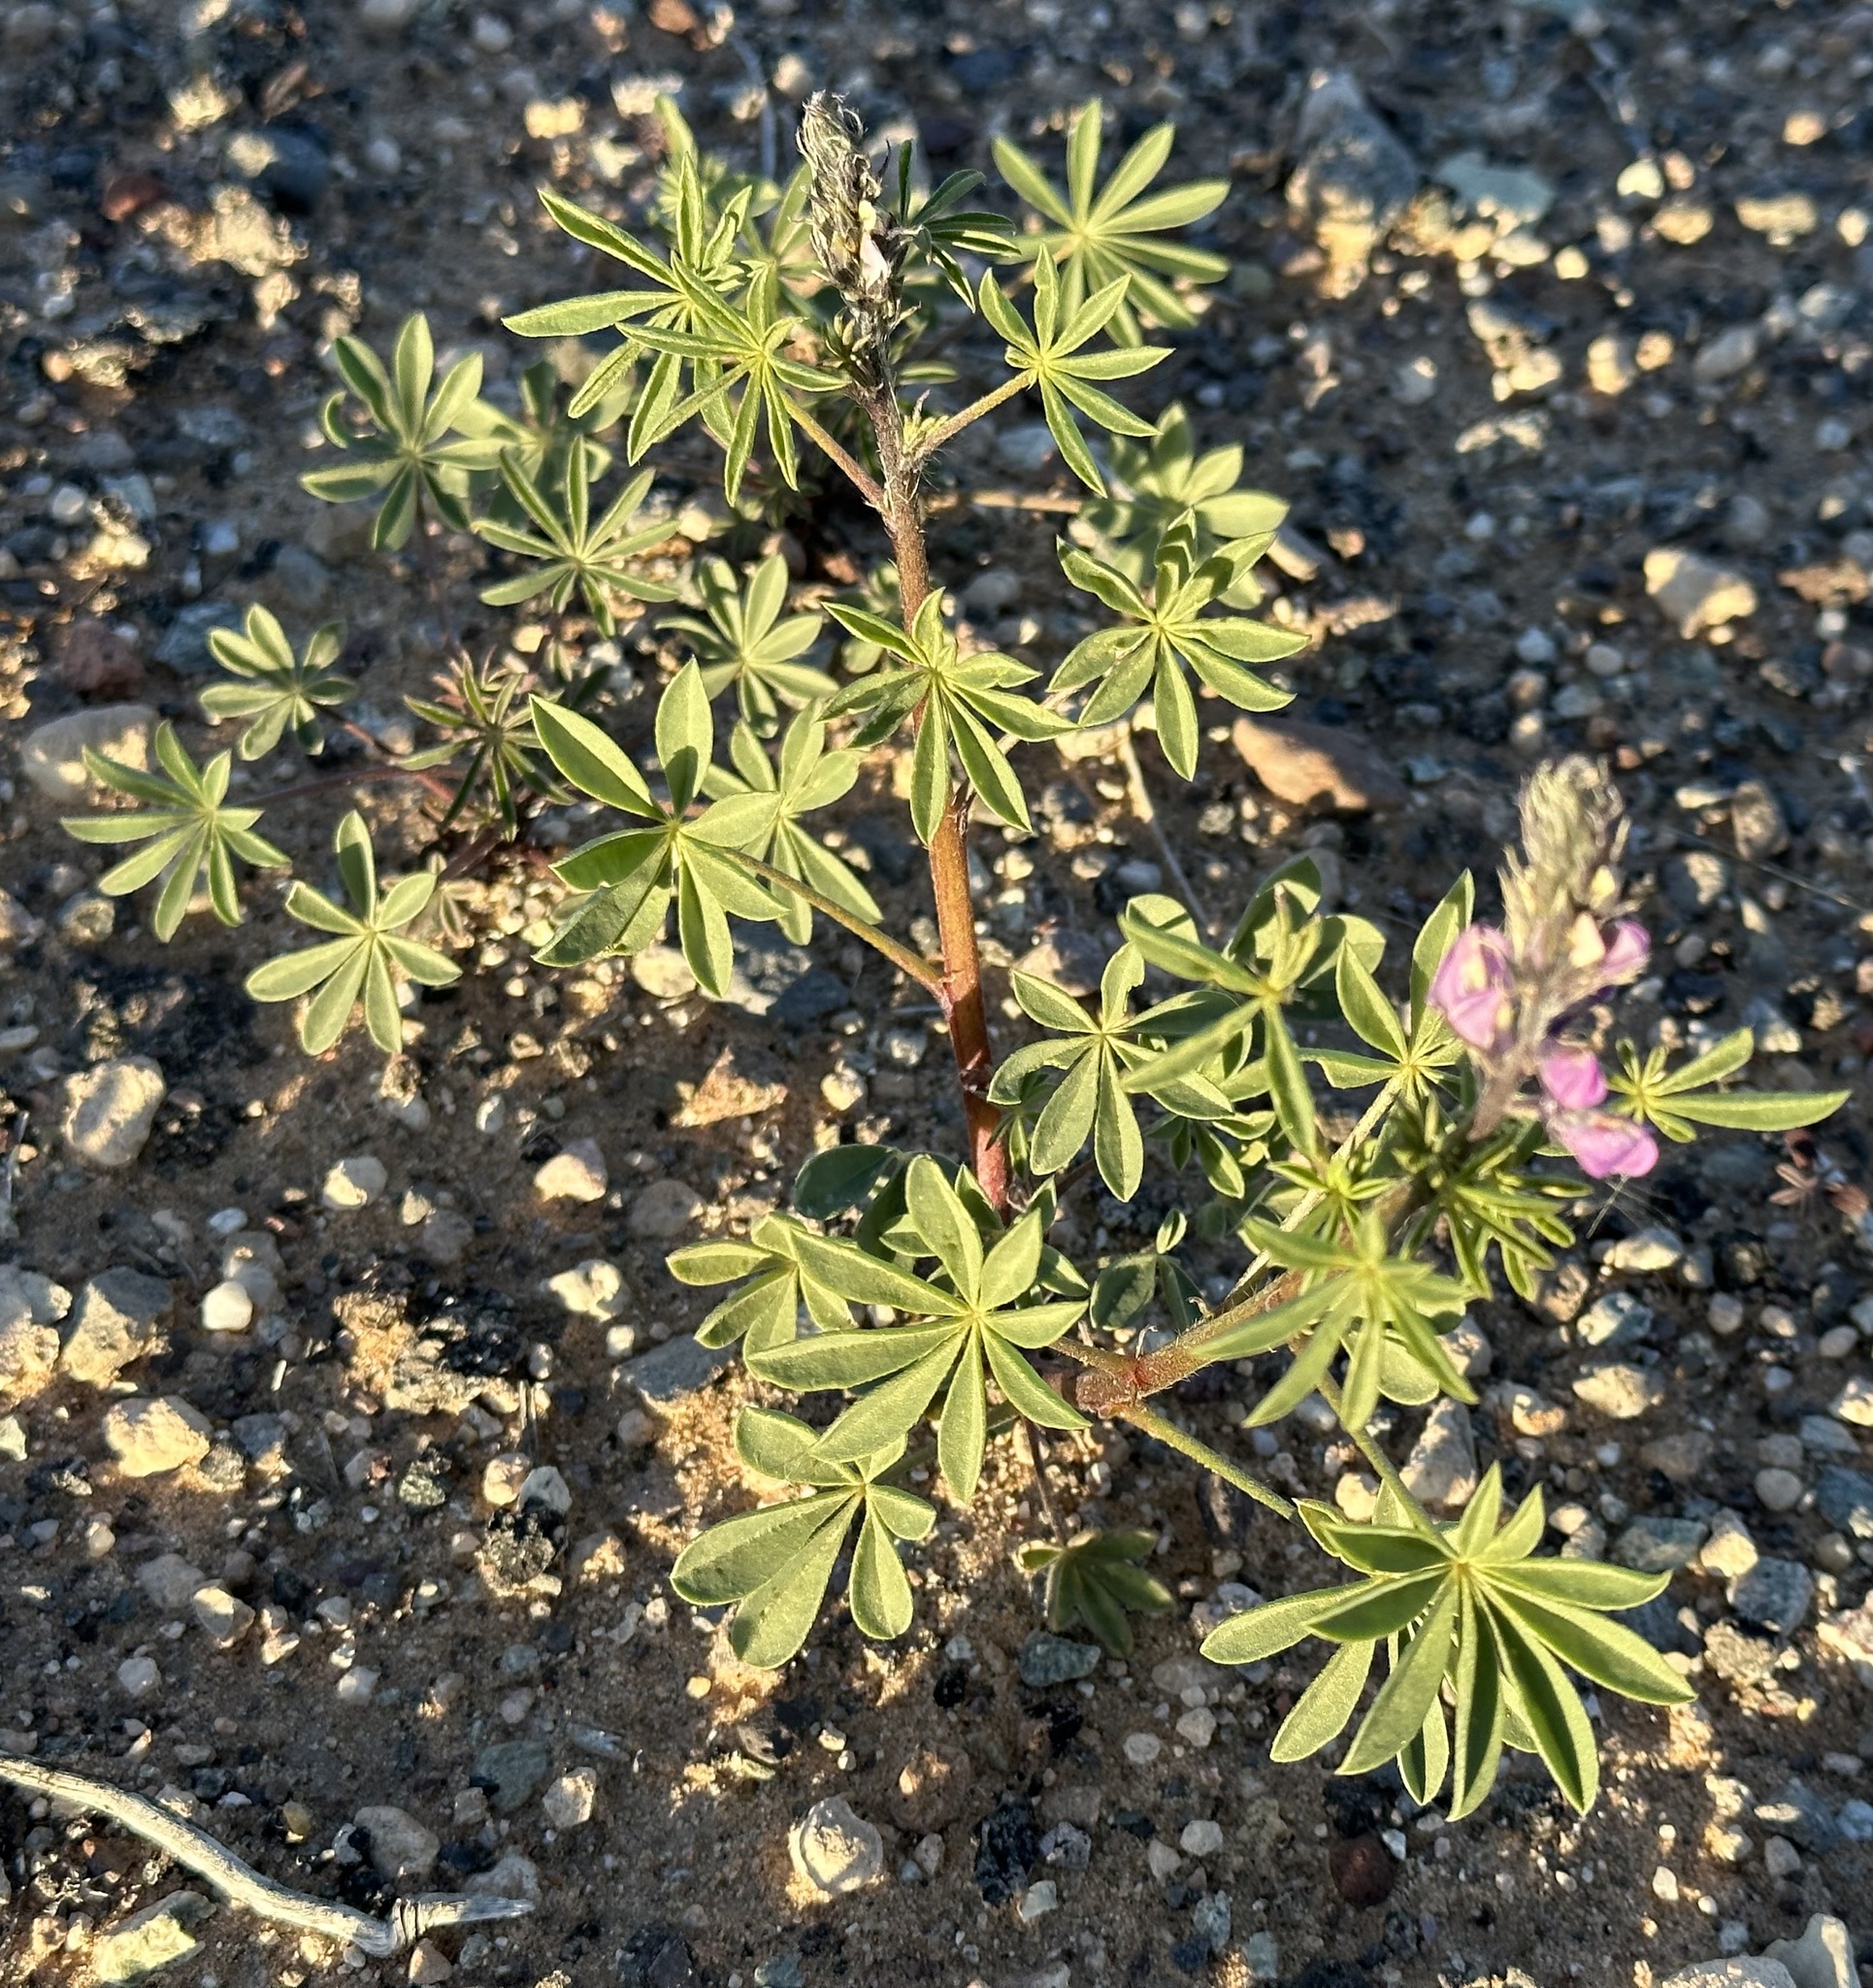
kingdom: Plantae
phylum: Tracheophyta
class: Magnoliopsida
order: Fabales
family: Fabaceae
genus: Lupinus
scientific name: Lupinus arizonicus
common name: Arizona lupine
